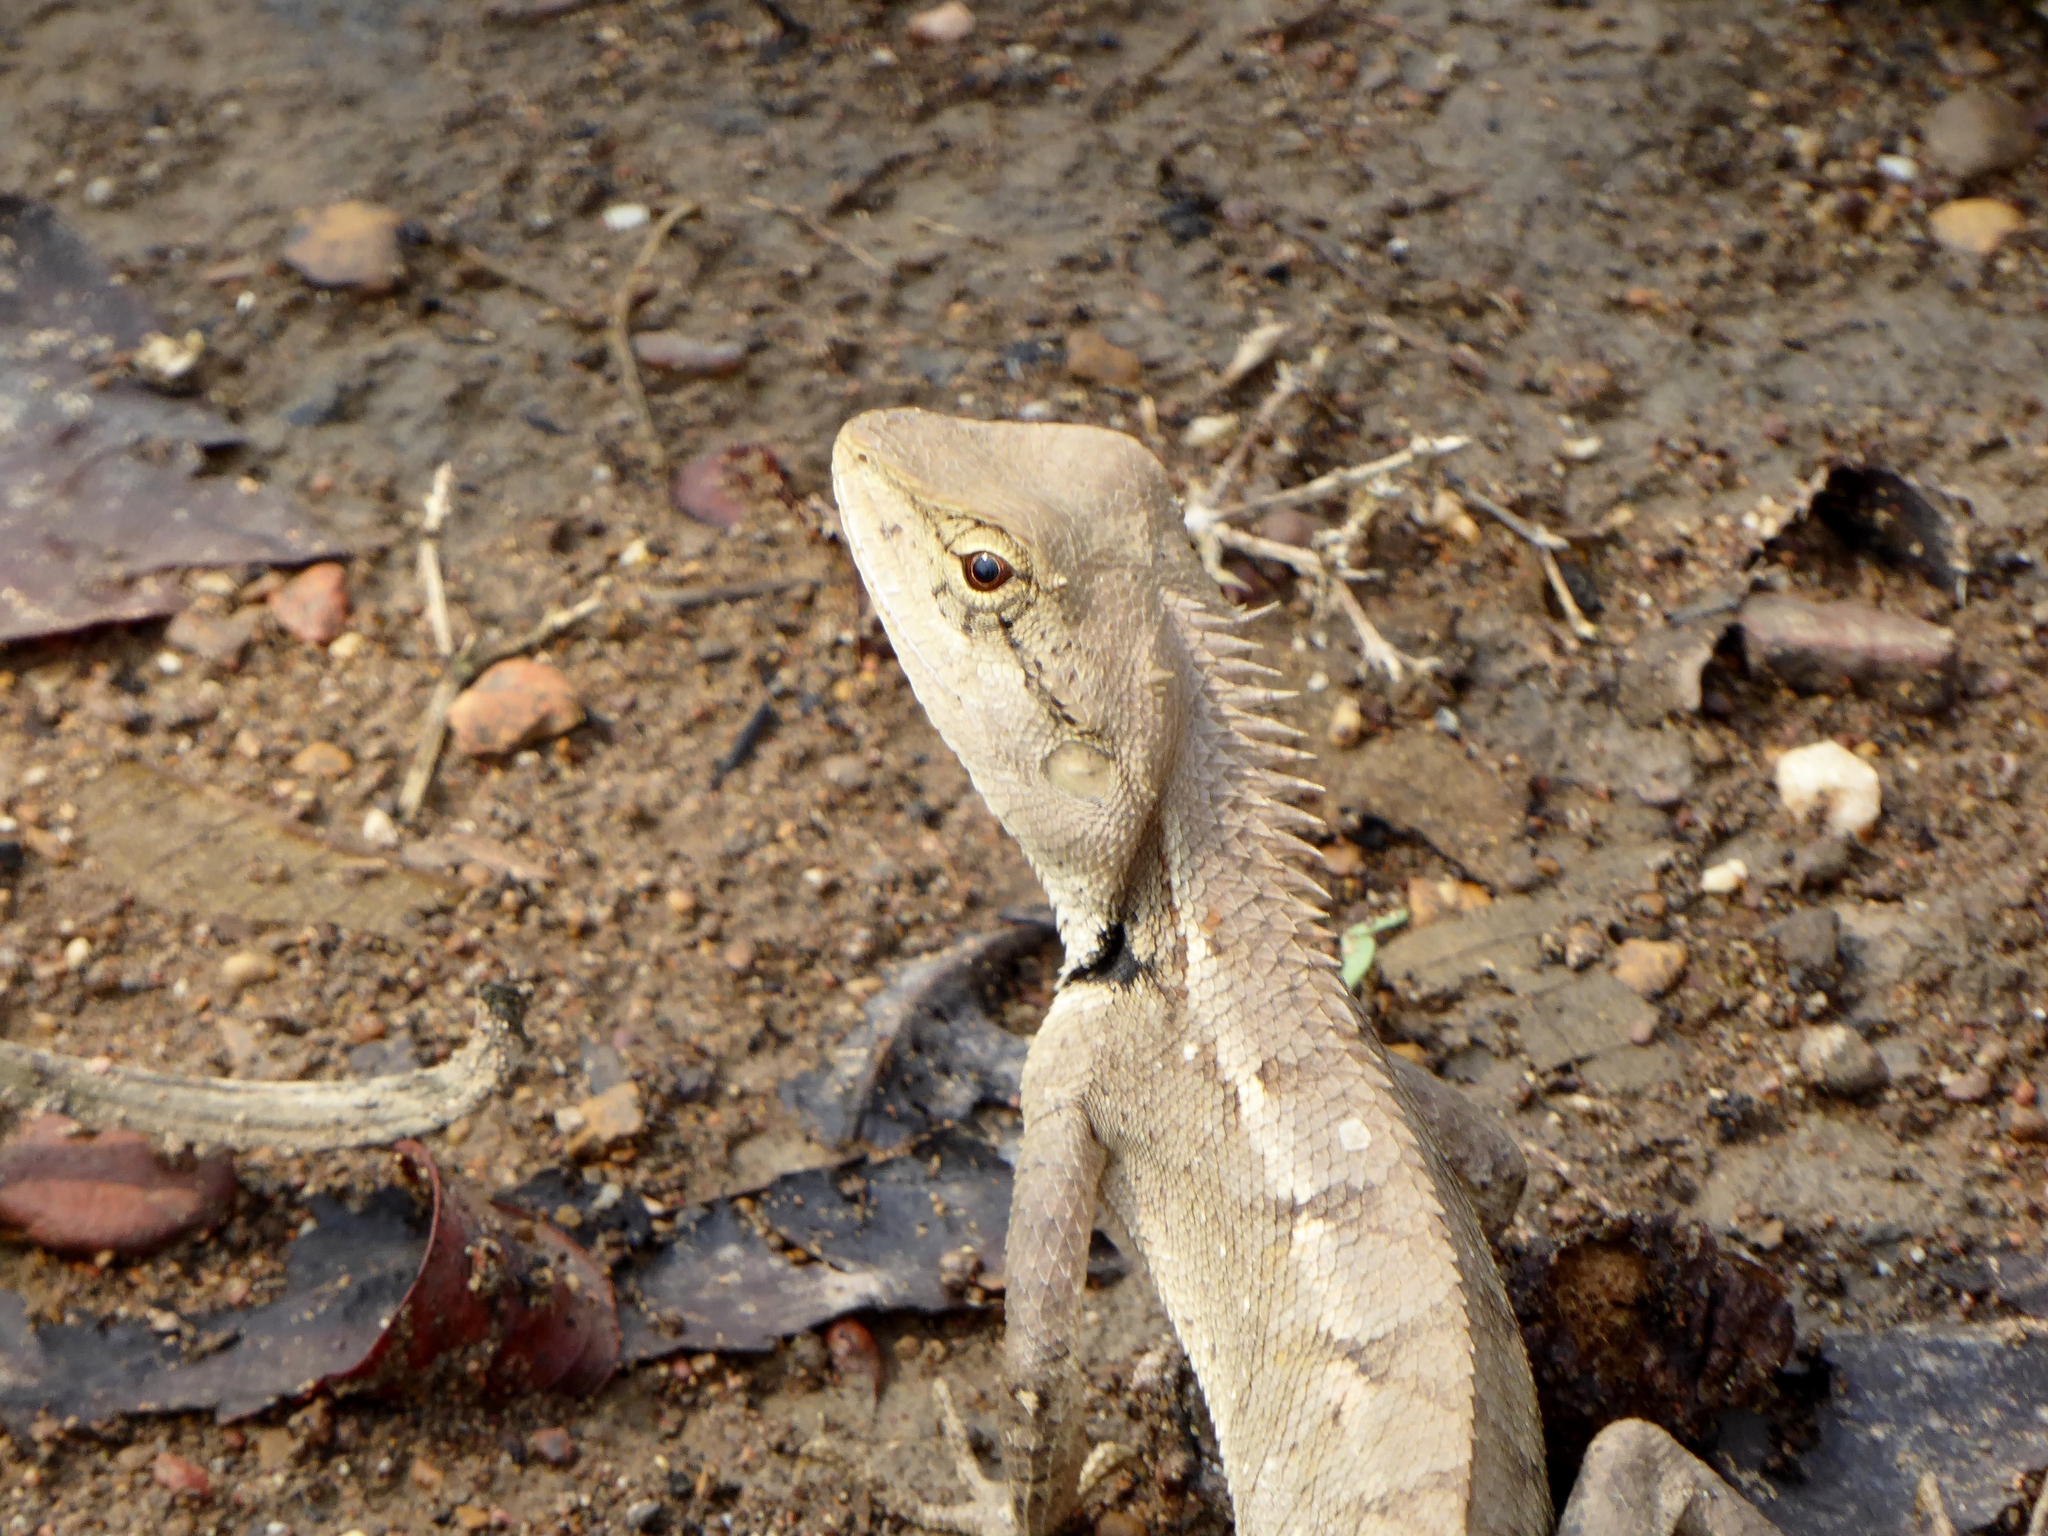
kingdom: Animalia
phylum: Chordata
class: Squamata
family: Agamidae
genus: Calotes
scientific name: Calotes emma
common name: Thailand bloodsucker
